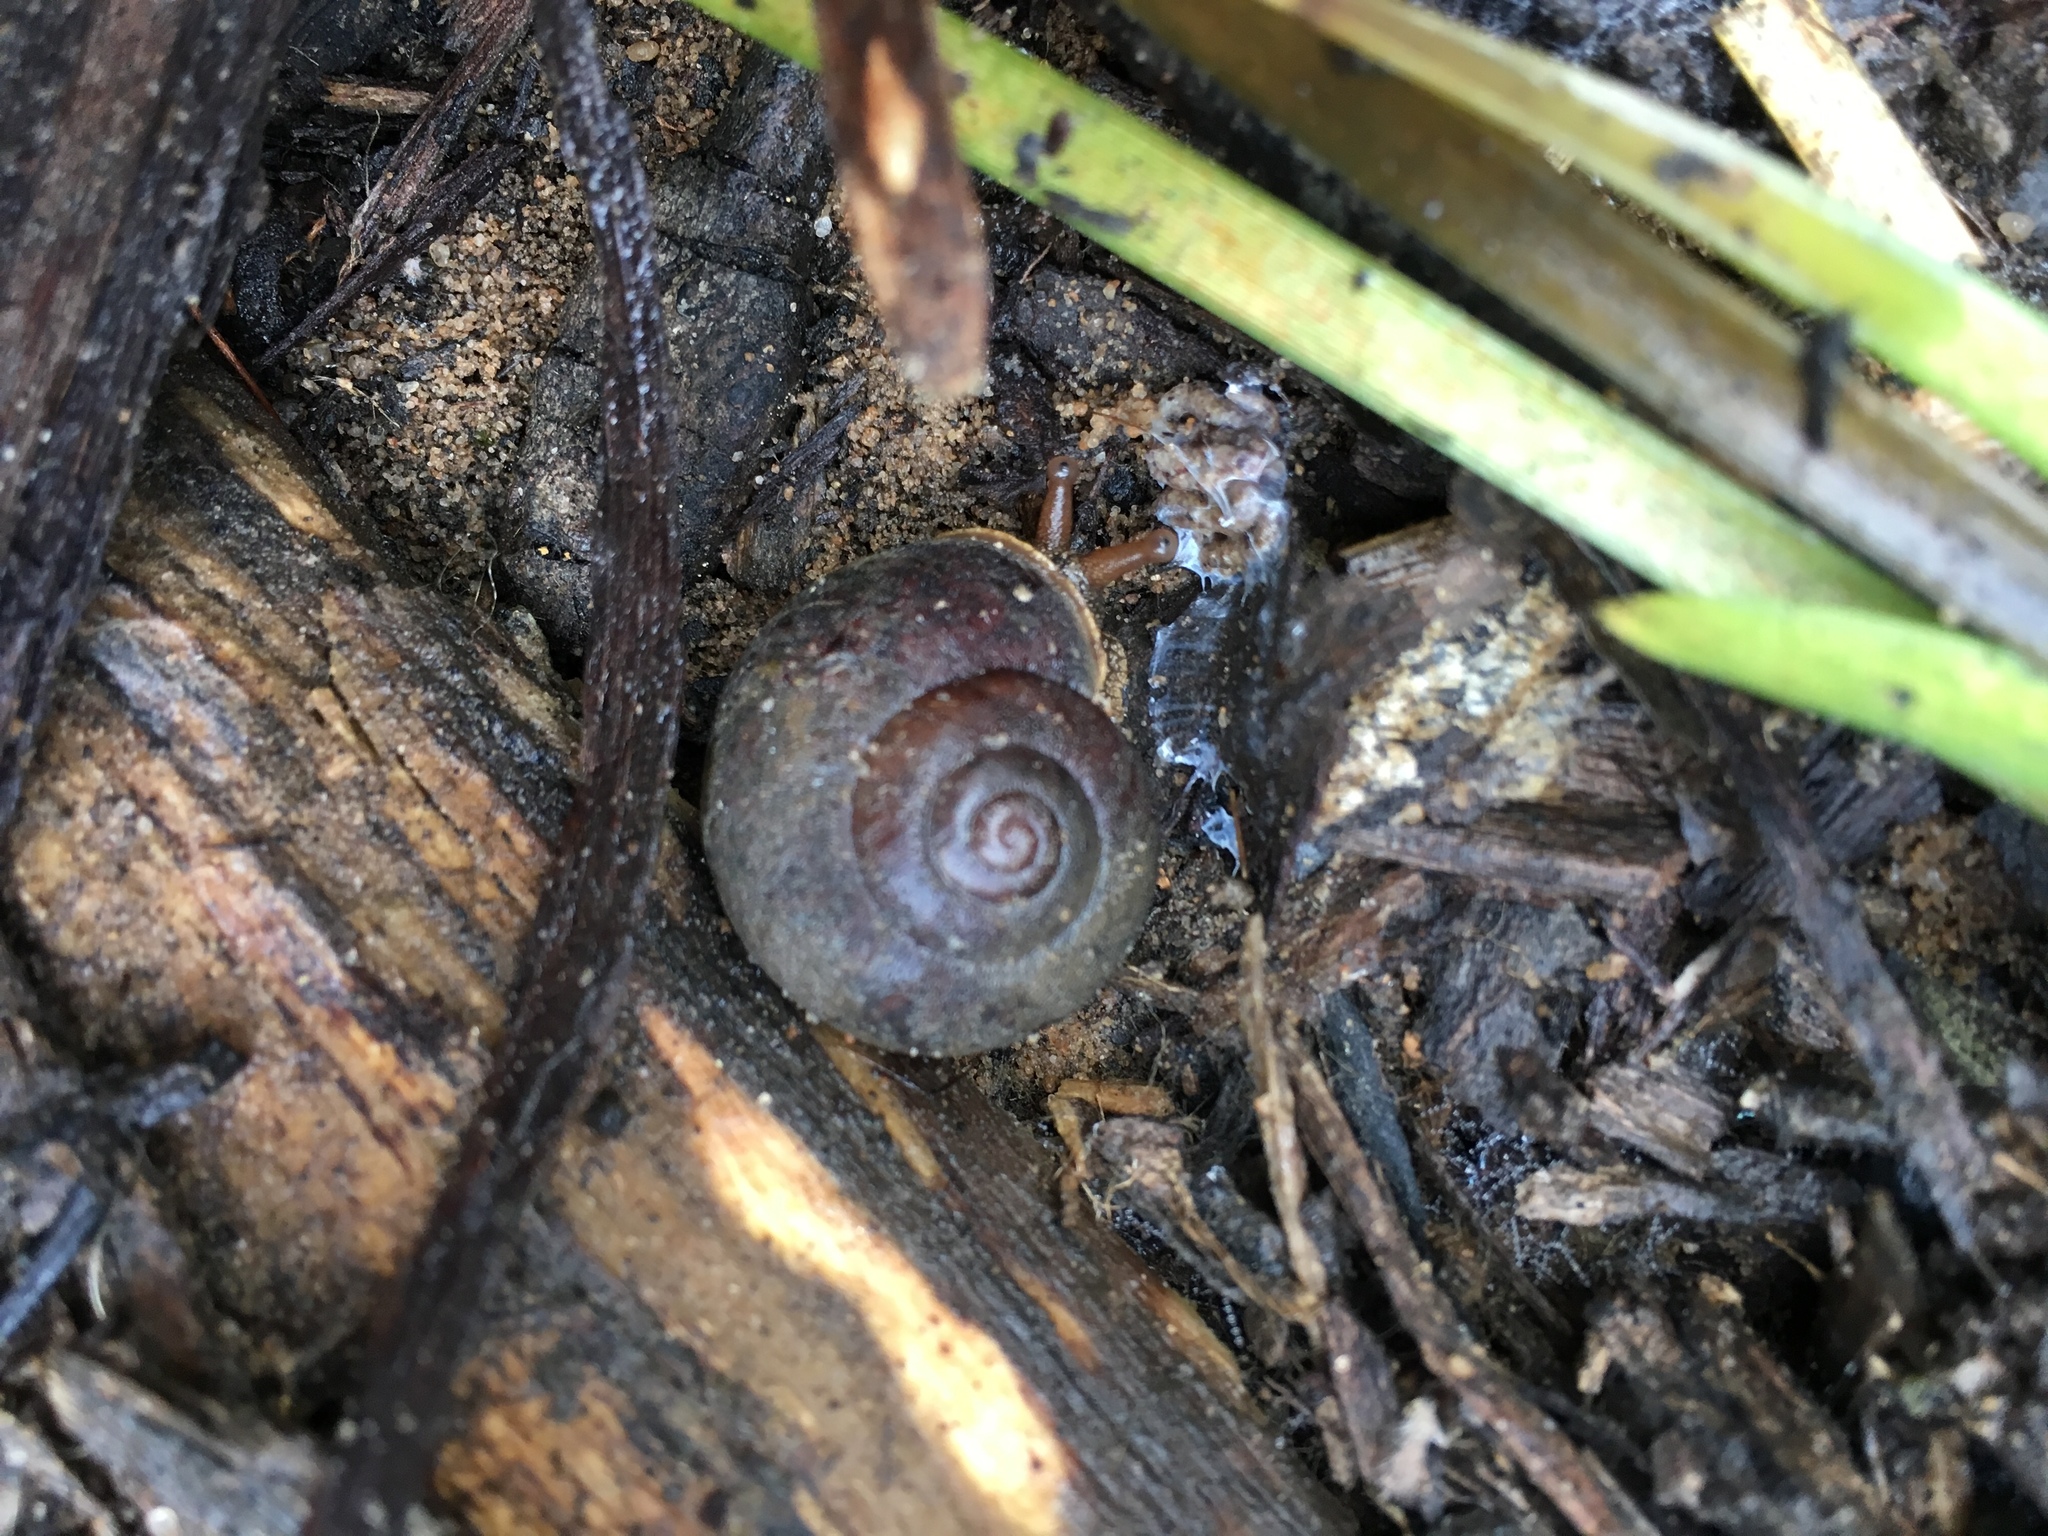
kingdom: Animalia
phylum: Mollusca
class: Gastropoda
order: Stylommatophora
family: Camaenidae
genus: Chloritobadistes
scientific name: Chloritobadistes victoriae
